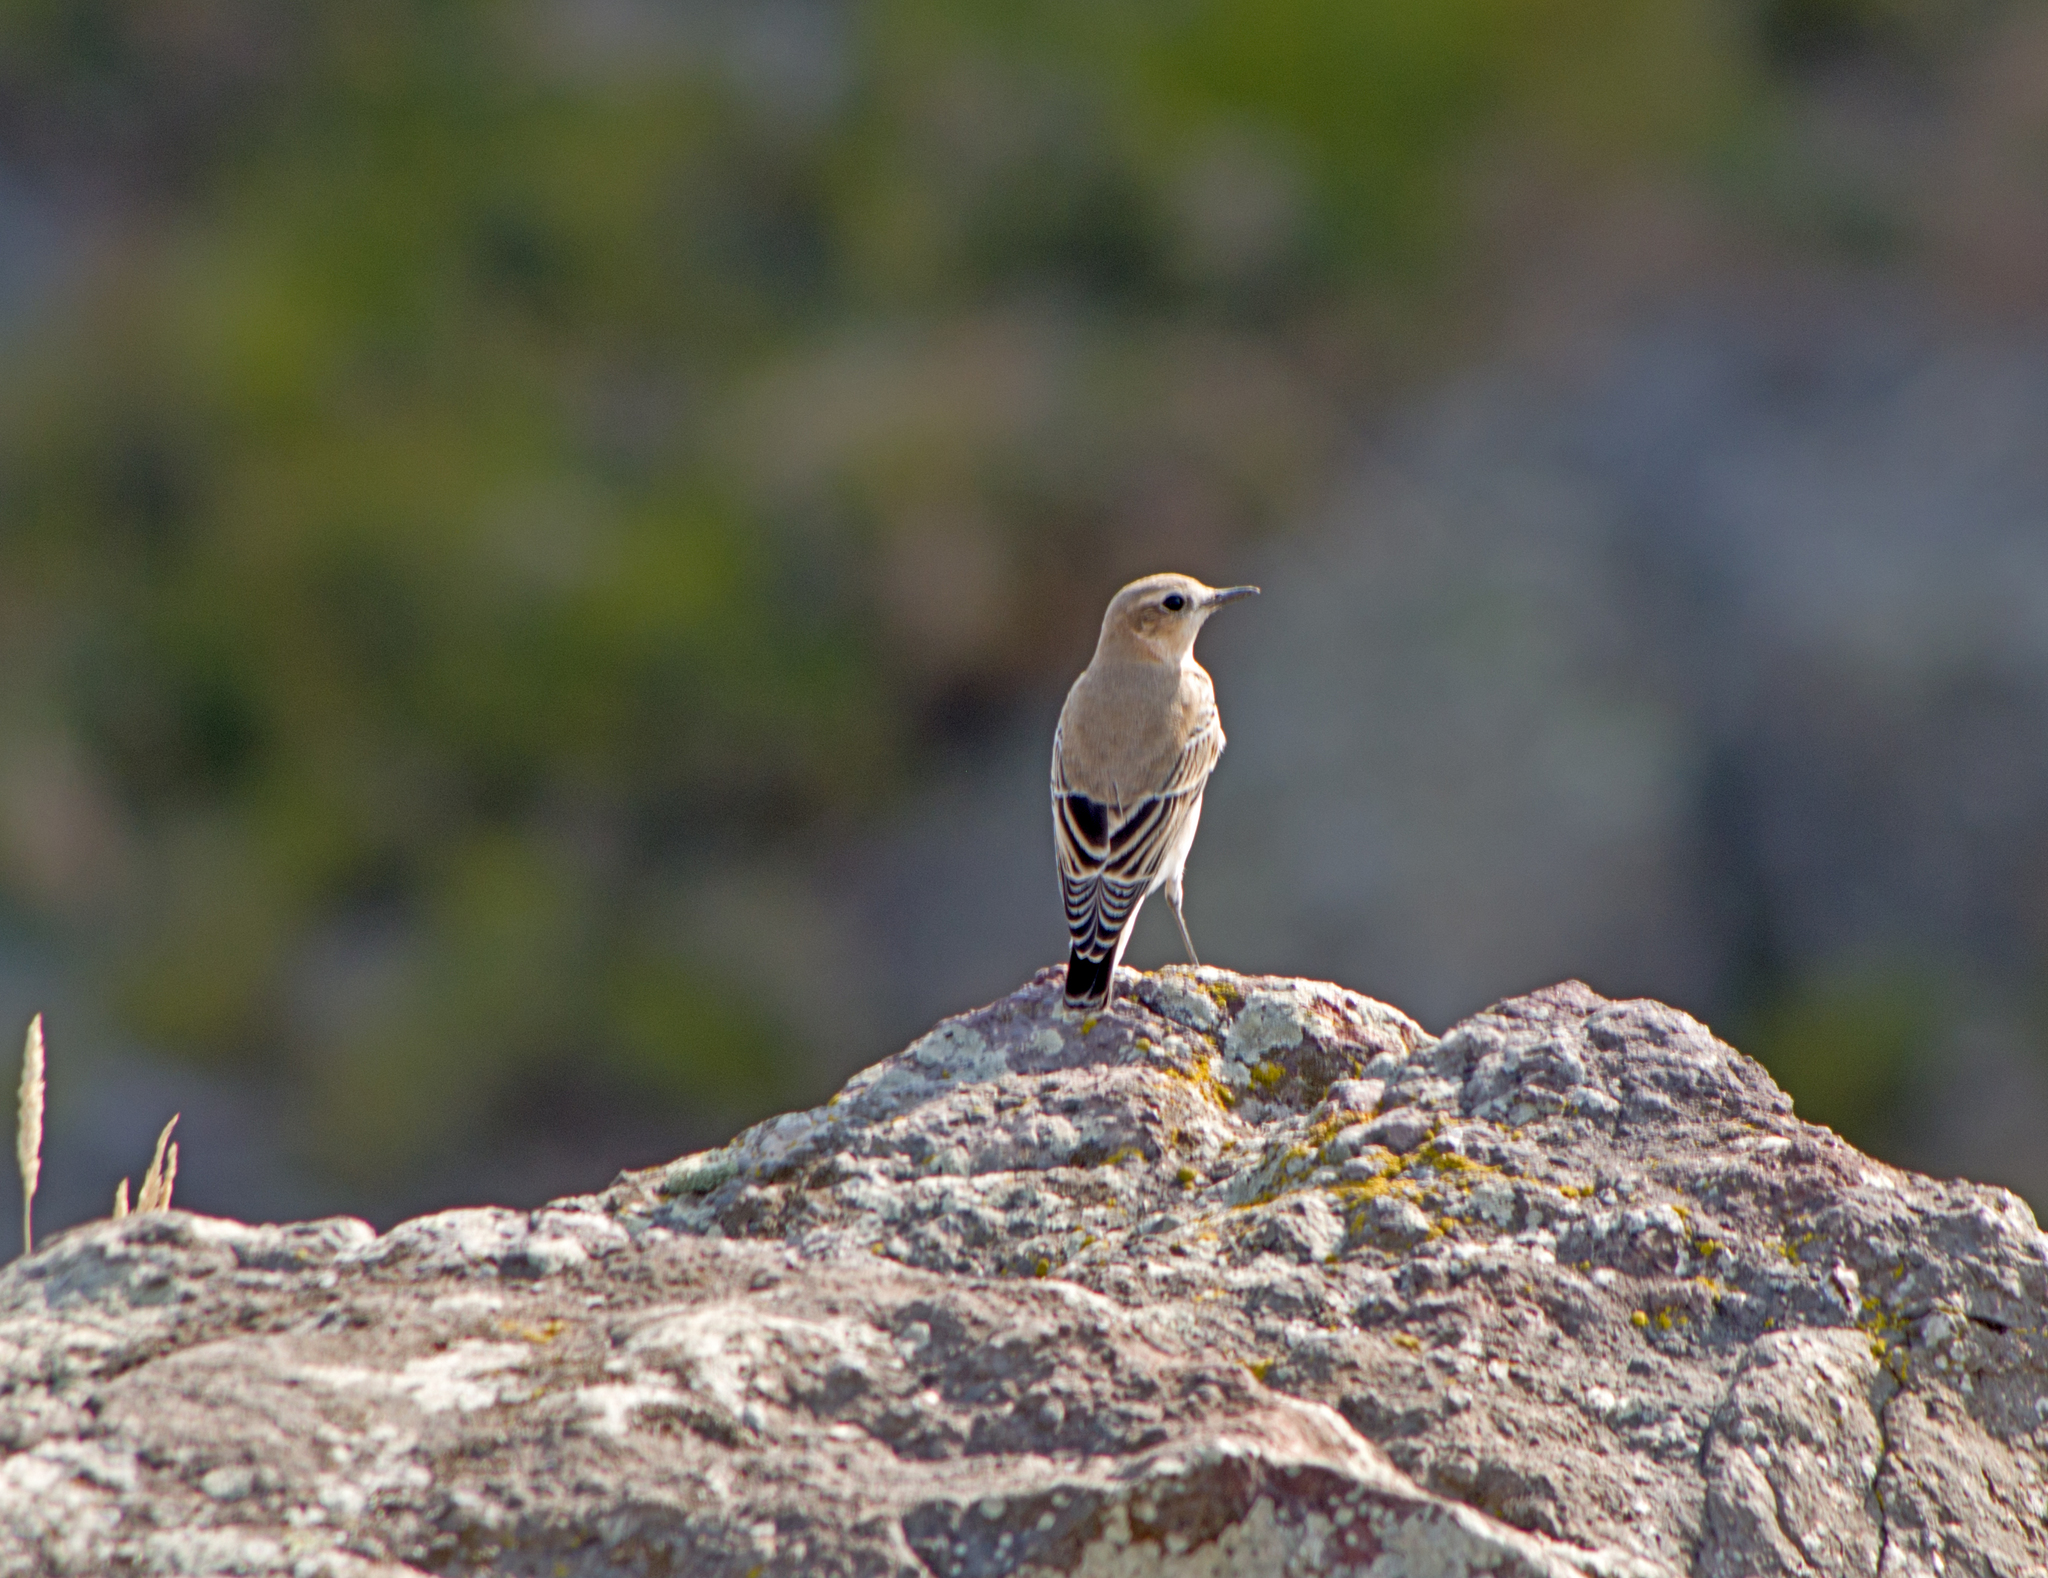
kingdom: Animalia
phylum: Chordata
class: Aves
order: Passeriformes
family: Muscicapidae
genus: Oenanthe
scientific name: Oenanthe oenanthe
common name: Northern wheatear
